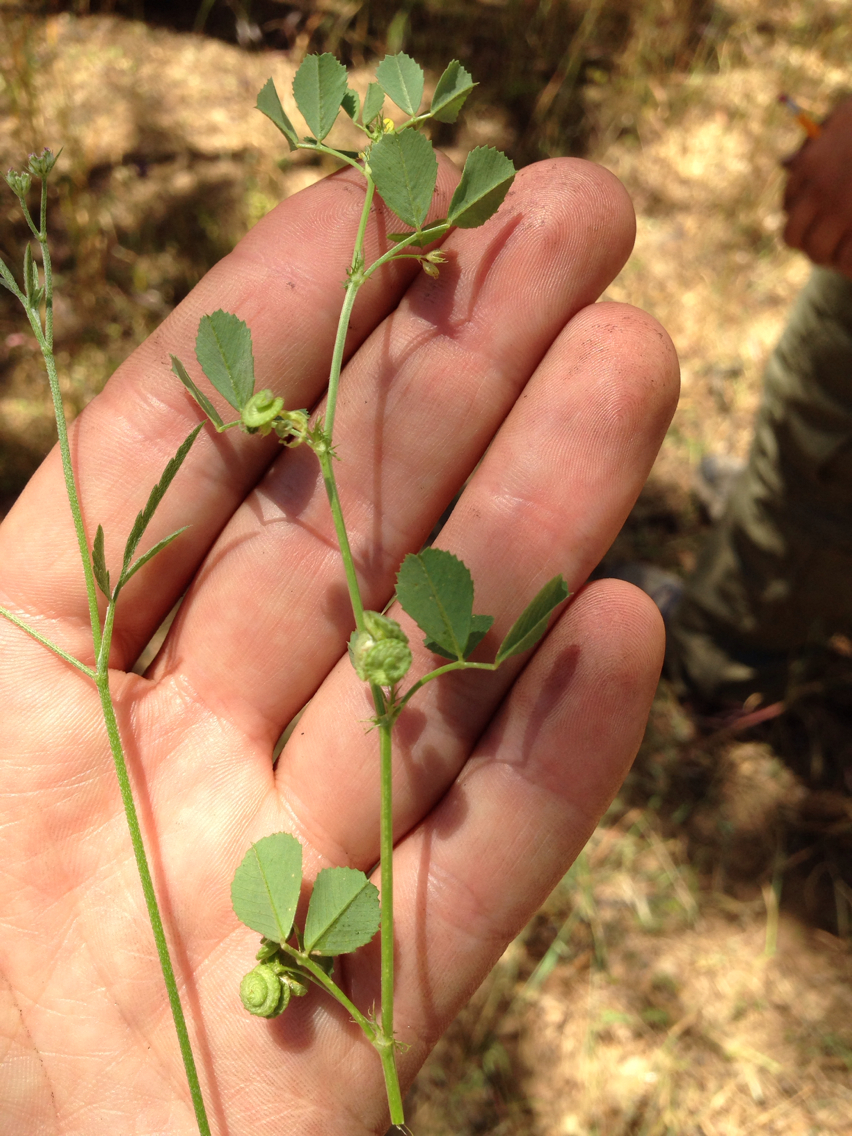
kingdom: Plantae
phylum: Tracheophyta
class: Magnoliopsida
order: Fabales
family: Fabaceae
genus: Medicago
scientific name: Medicago polymorpha
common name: Burclover
